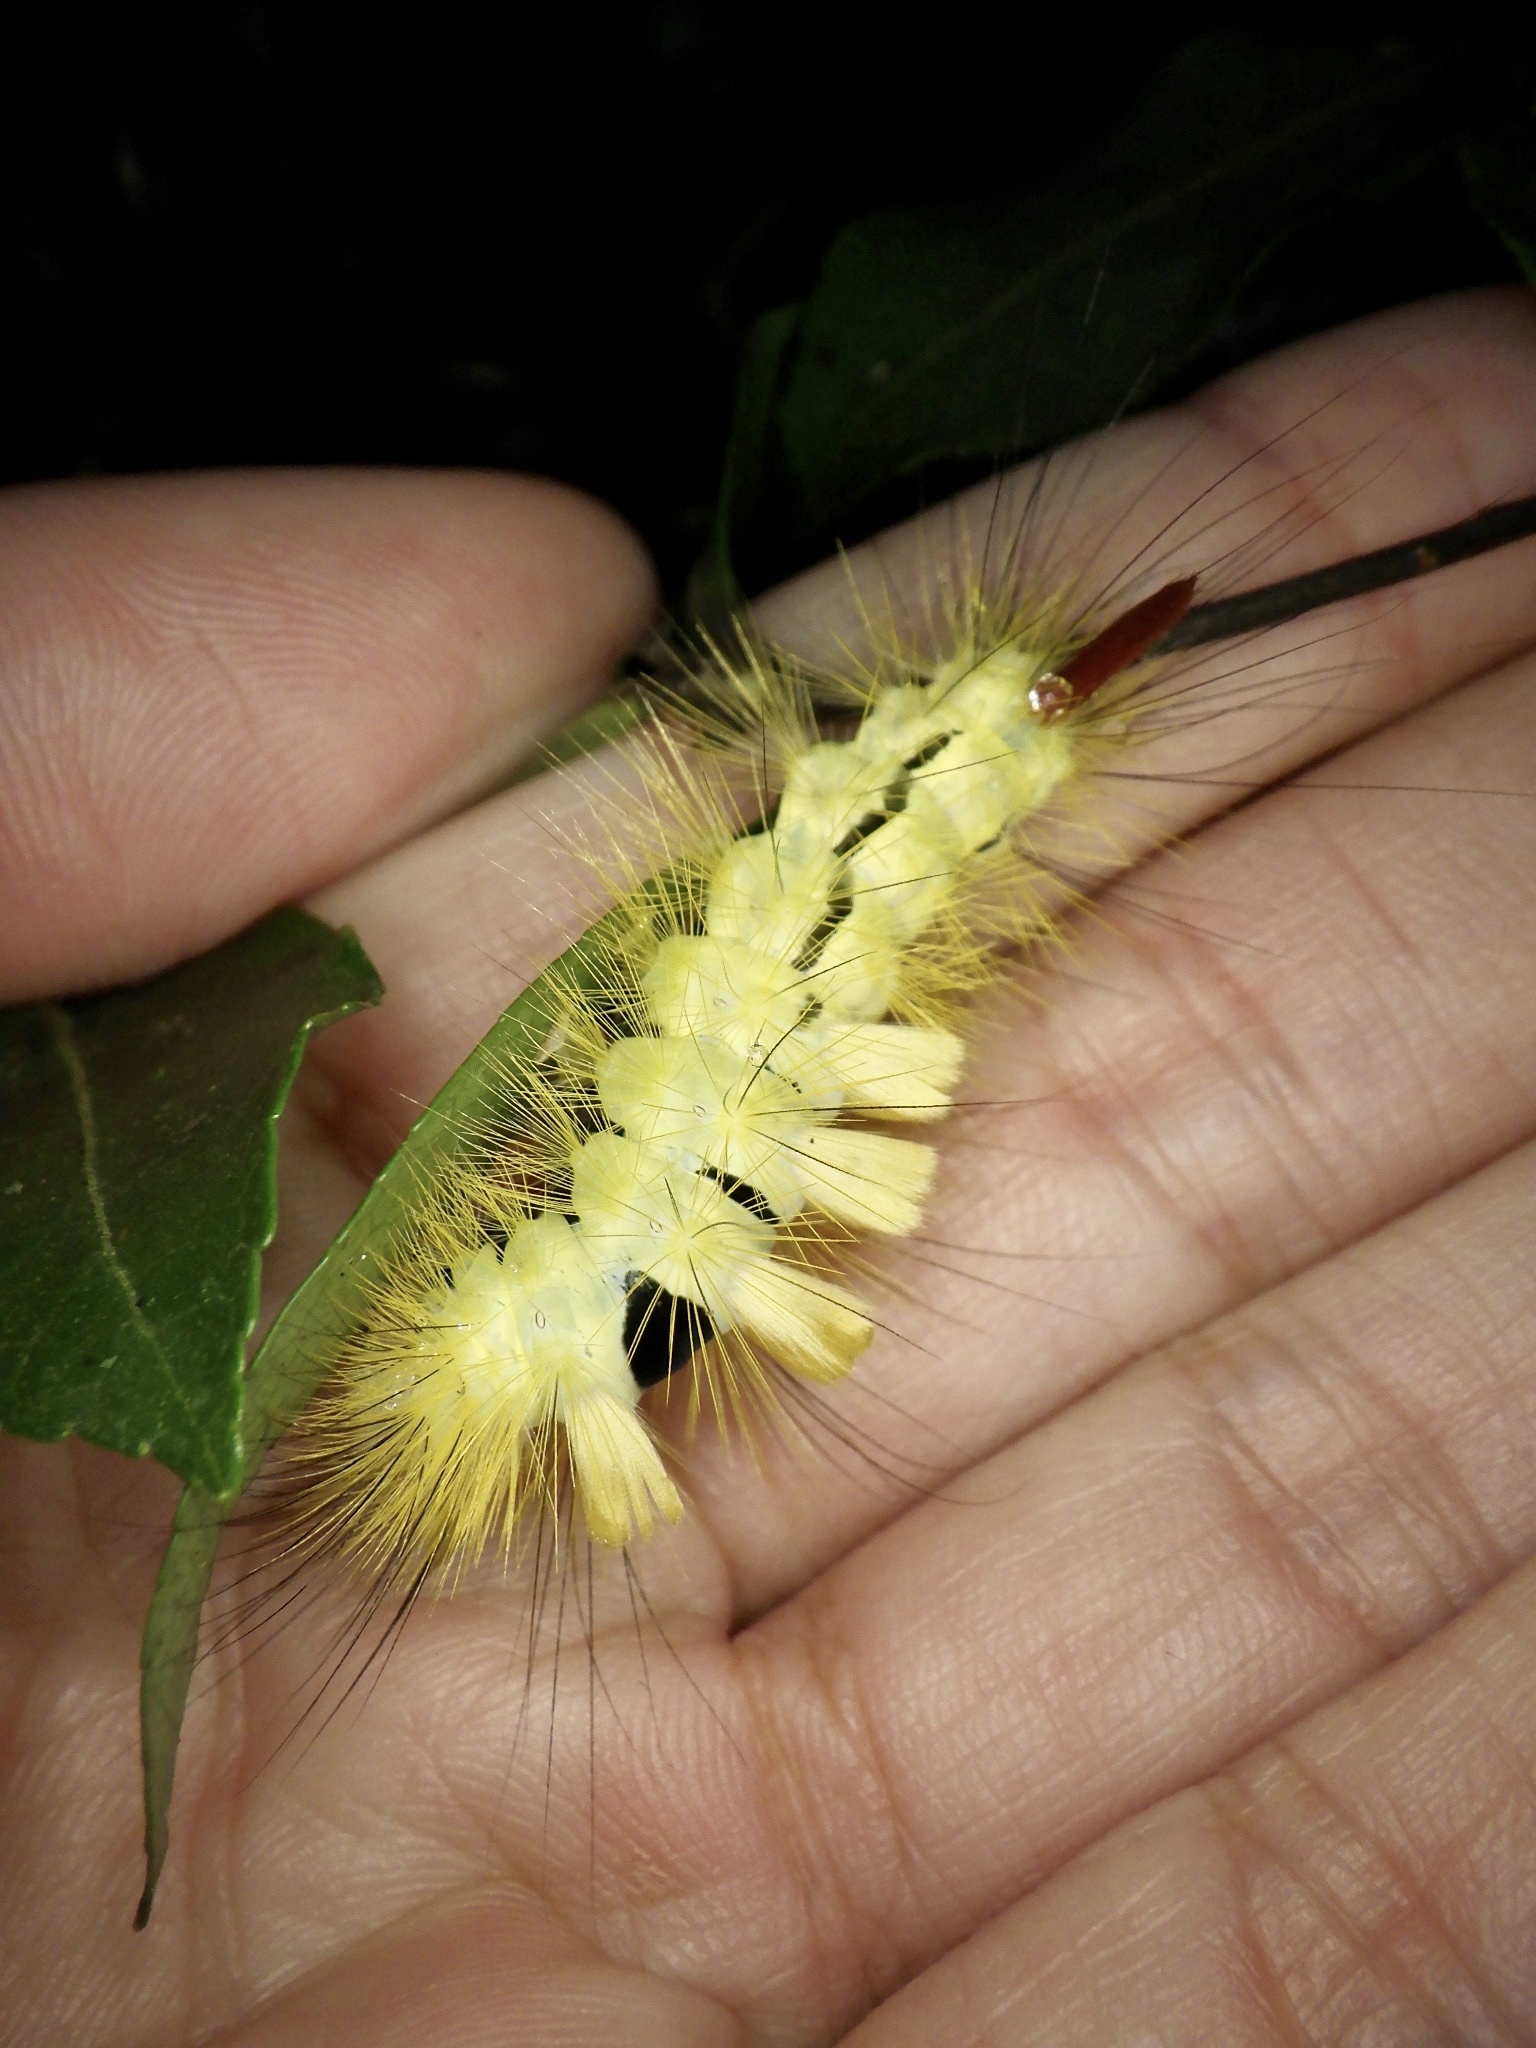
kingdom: Animalia
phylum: Arthropoda
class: Insecta
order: Lepidoptera
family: Erebidae
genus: Calliteara
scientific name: Calliteara
